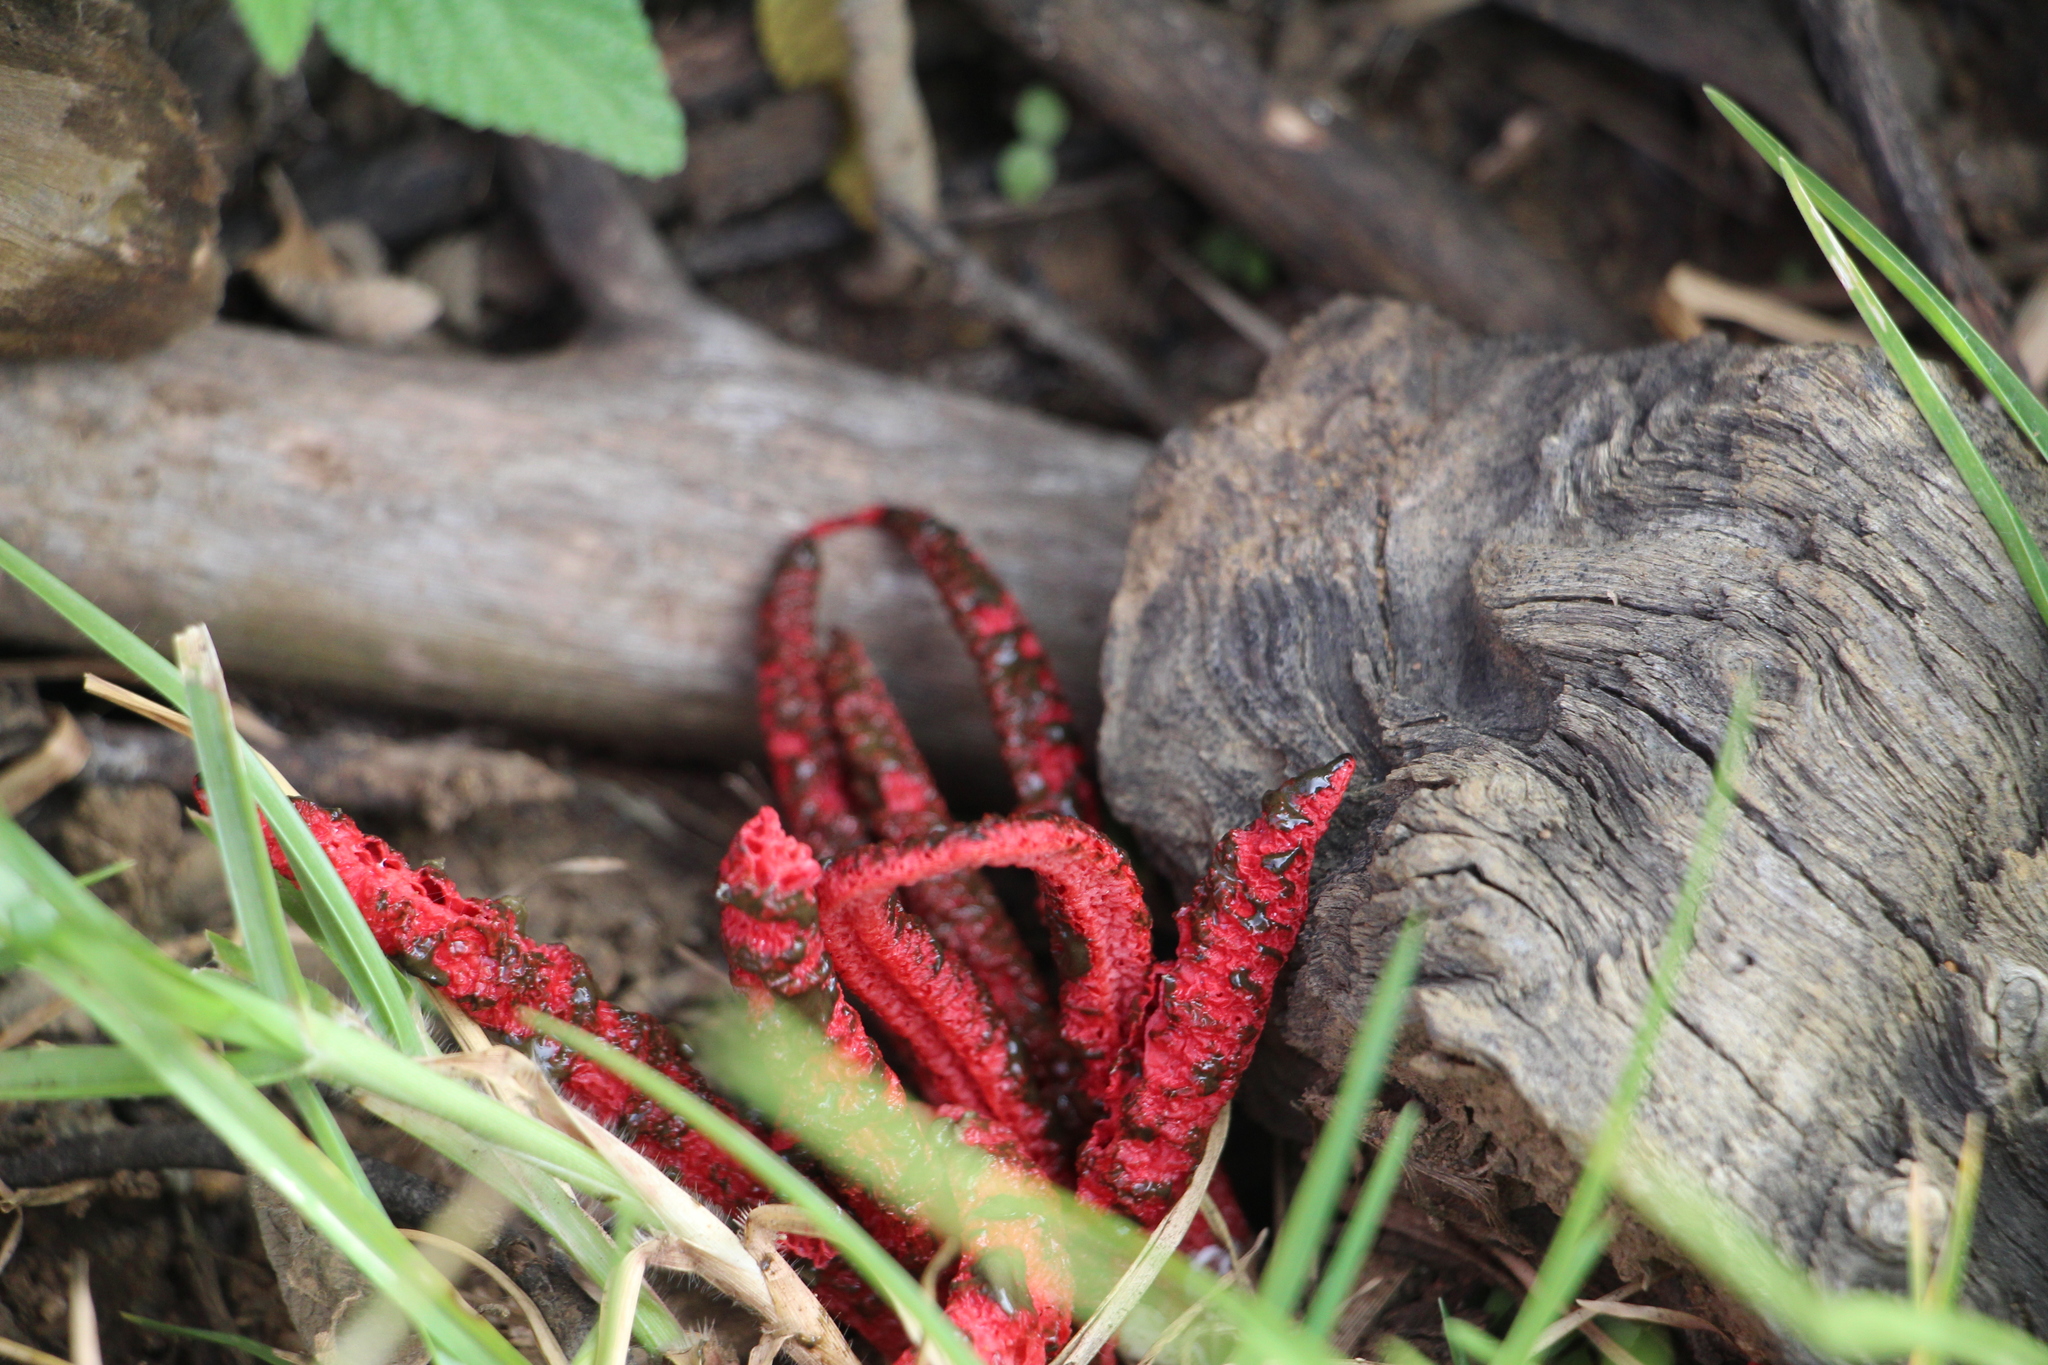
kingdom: Fungi
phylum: Basidiomycota
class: Agaricomycetes
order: Phallales
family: Phallaceae
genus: Clathrus
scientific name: Clathrus archeri
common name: Devil's fingers
